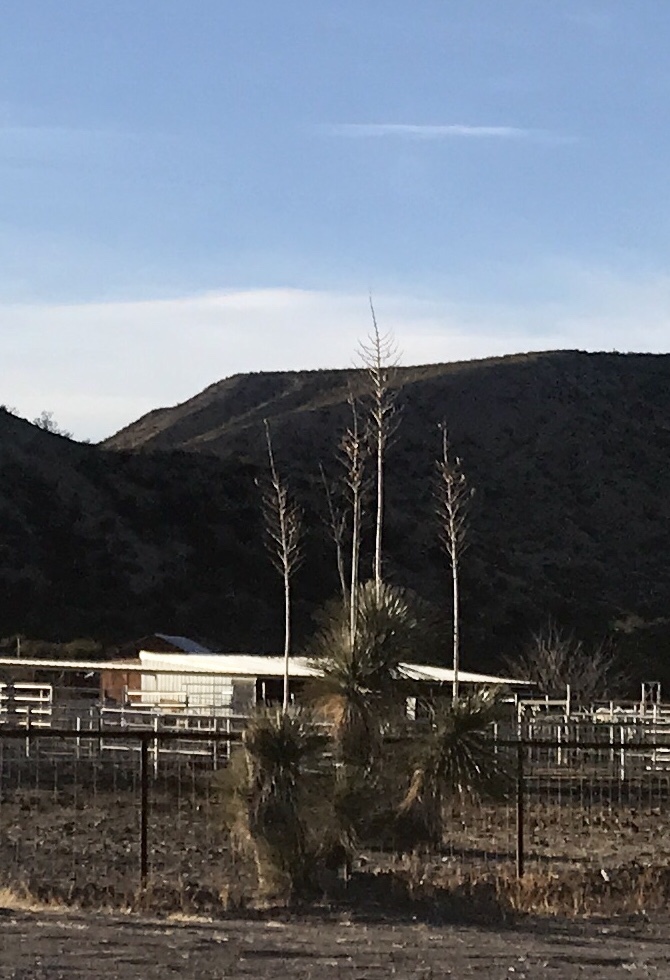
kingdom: Plantae
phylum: Tracheophyta
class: Liliopsida
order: Asparagales
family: Asparagaceae
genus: Yucca
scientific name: Yucca elata
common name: Palmella
